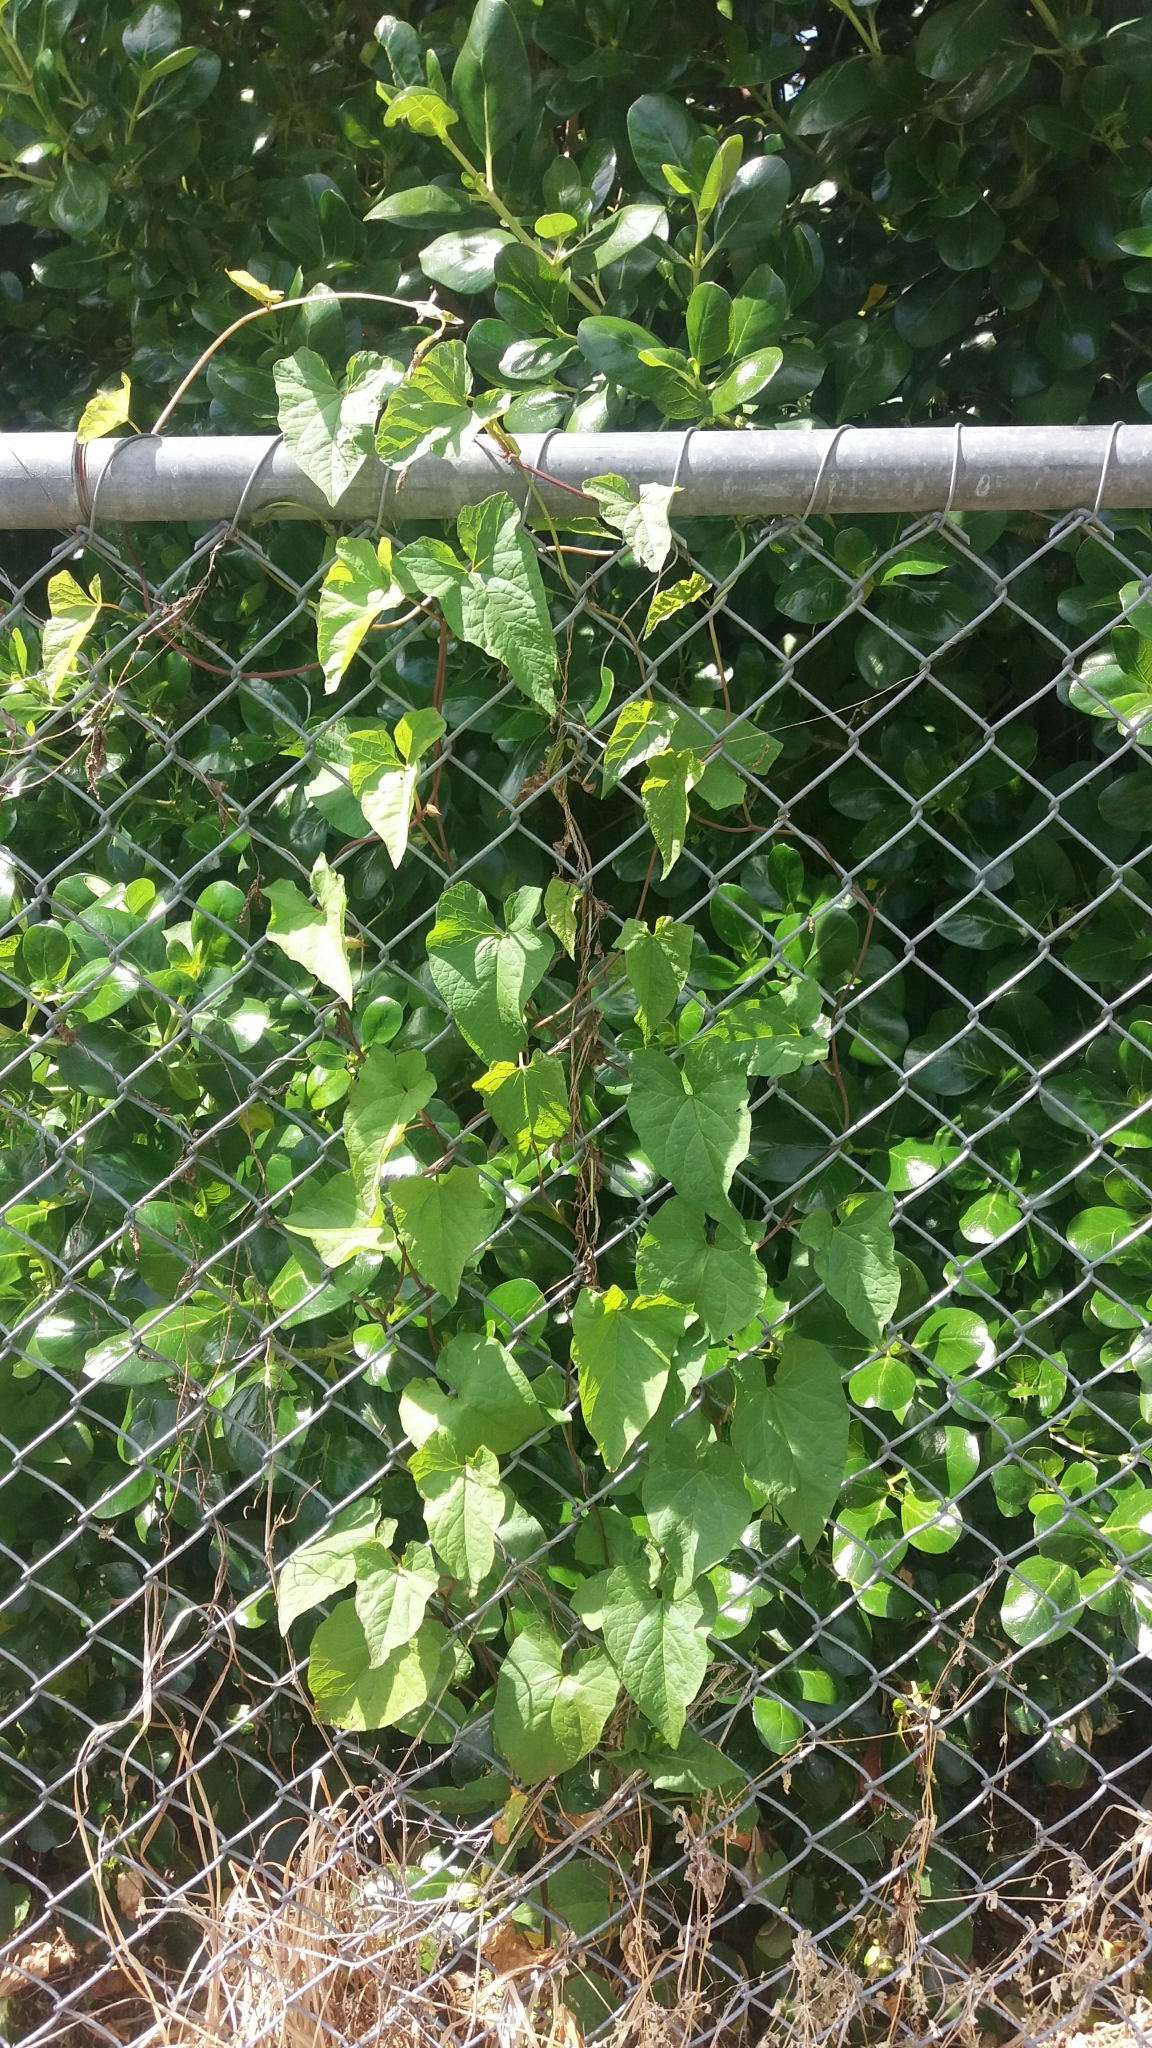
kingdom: Plantae
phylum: Tracheophyta
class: Magnoliopsida
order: Solanales
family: Convolvulaceae
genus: Calystegia
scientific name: Calystegia silvatica
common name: Large bindweed
